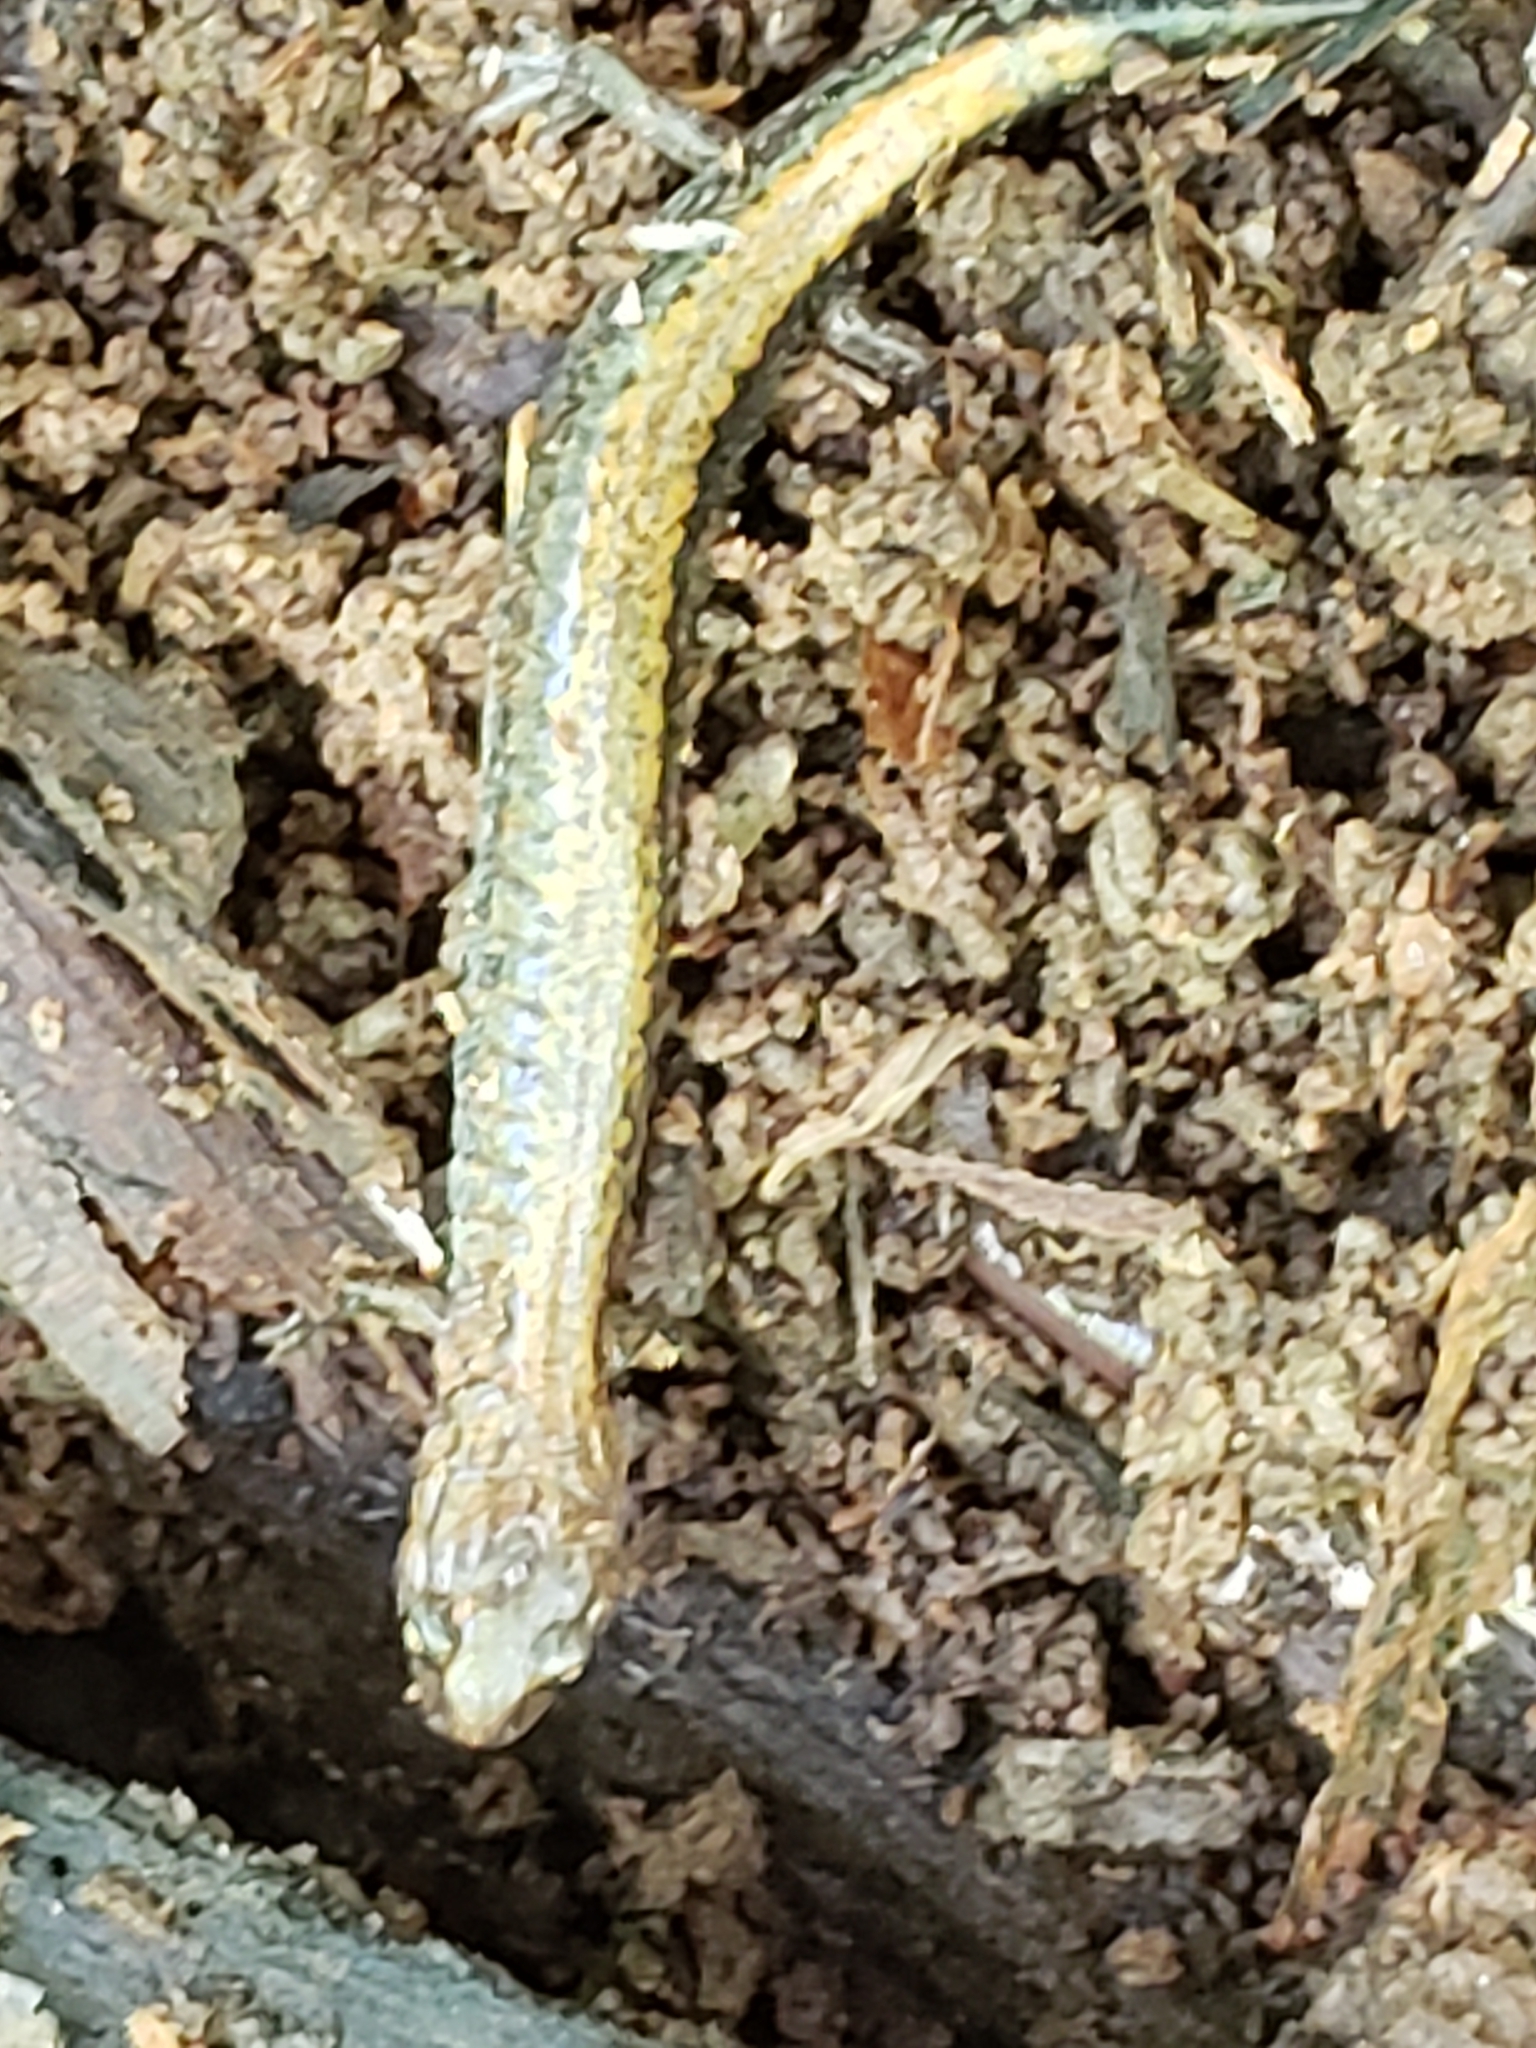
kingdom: Animalia
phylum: Chordata
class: Amphibia
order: Caudata
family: Plethodontidae
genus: Plethodon
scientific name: Plethodon cinereus
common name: Redback salamander
